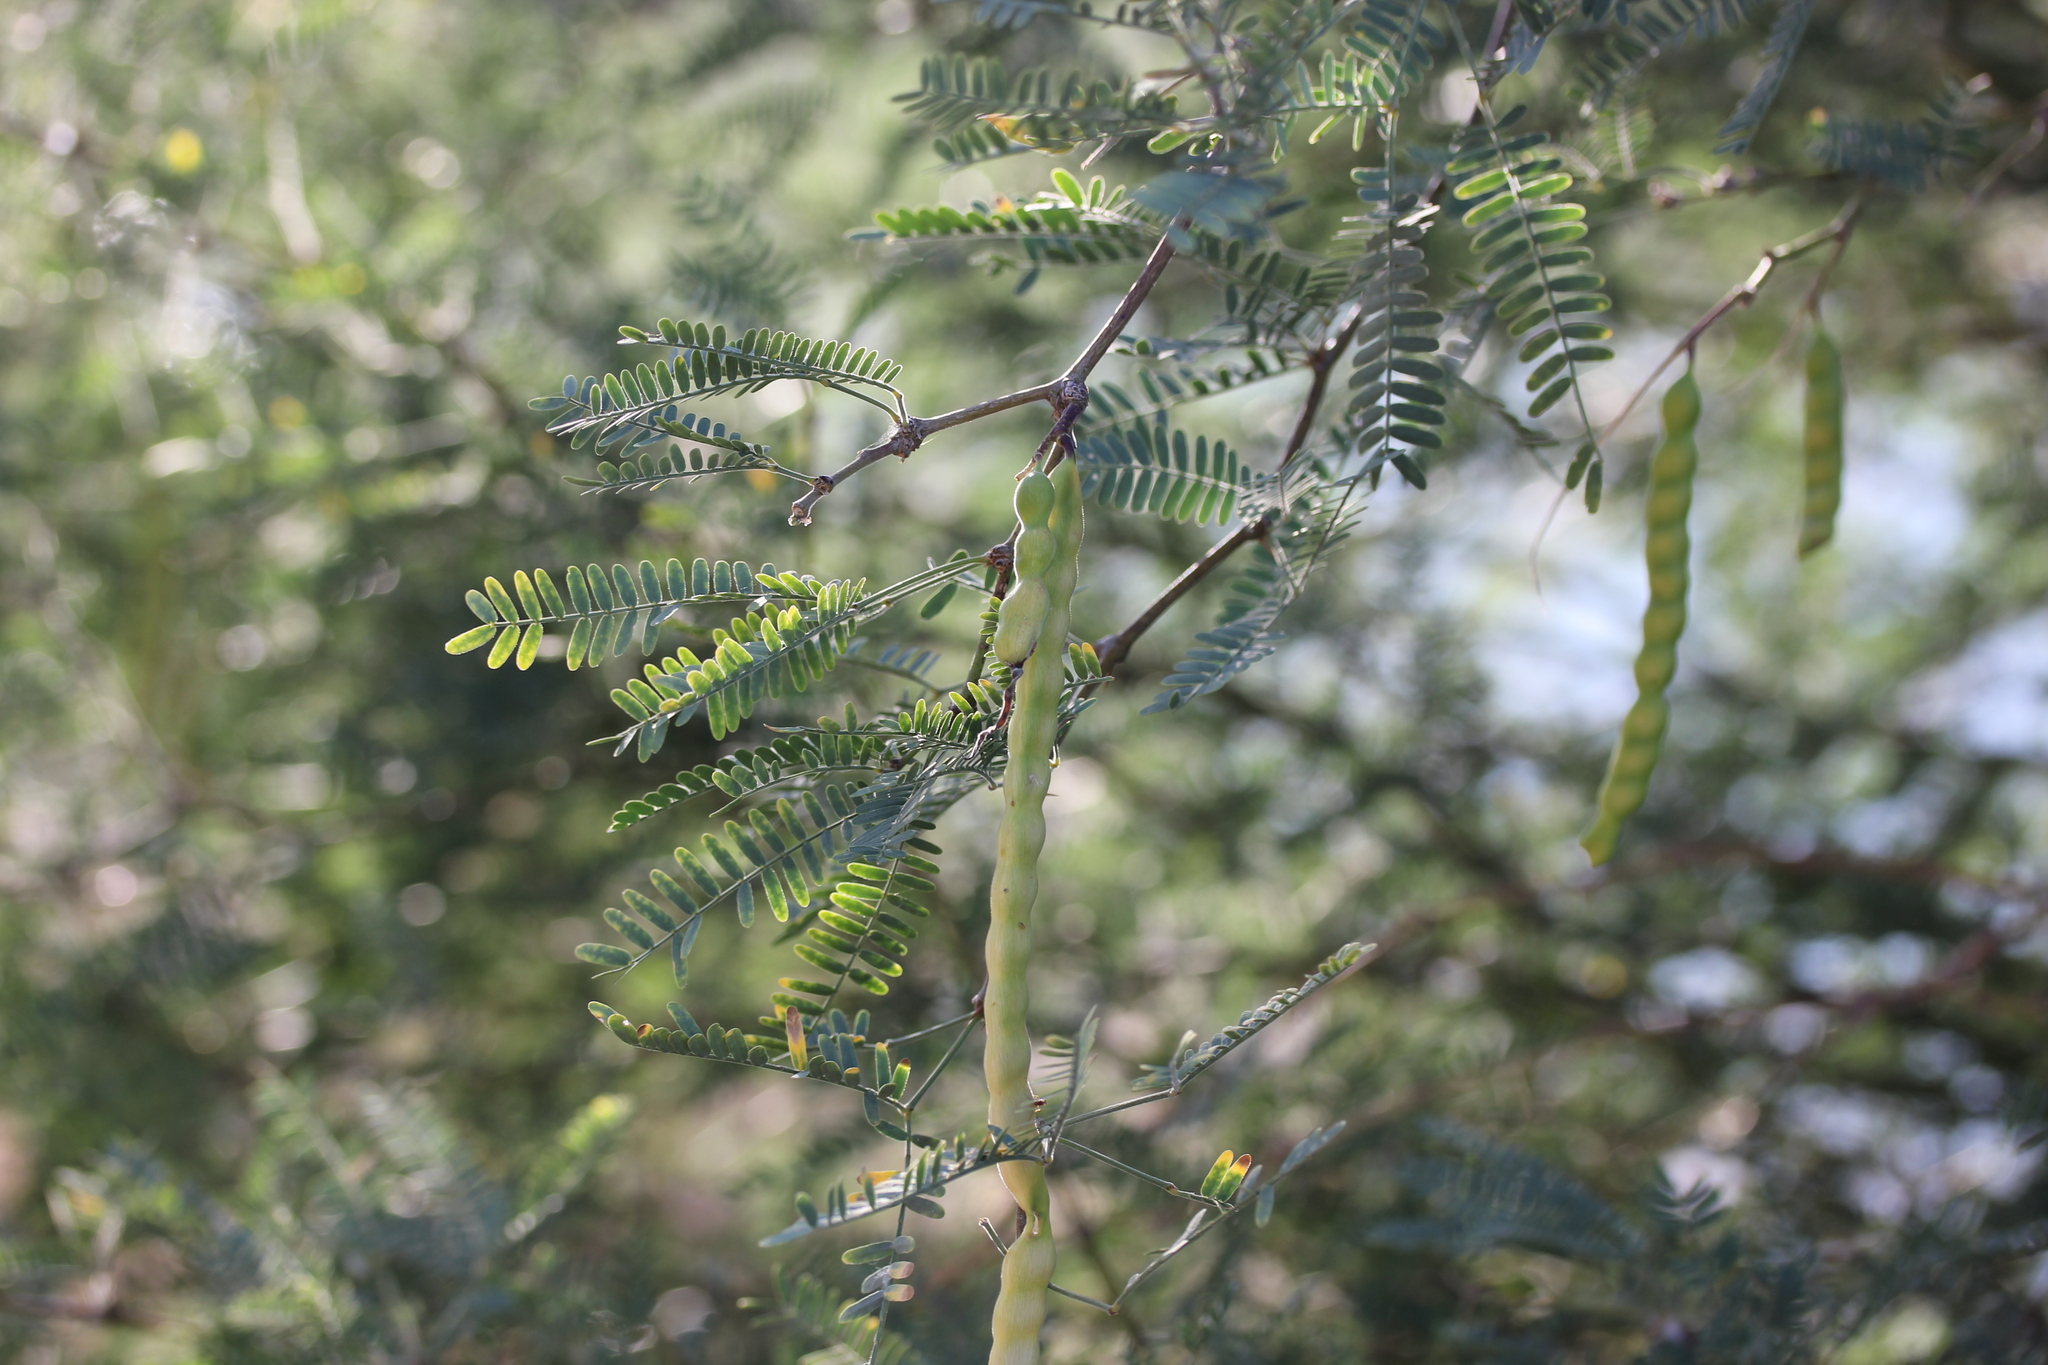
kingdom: Plantae
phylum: Tracheophyta
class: Magnoliopsida
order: Fabales
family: Fabaceae
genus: Prosopis
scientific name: Prosopis velutina
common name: Velvet mesquite
